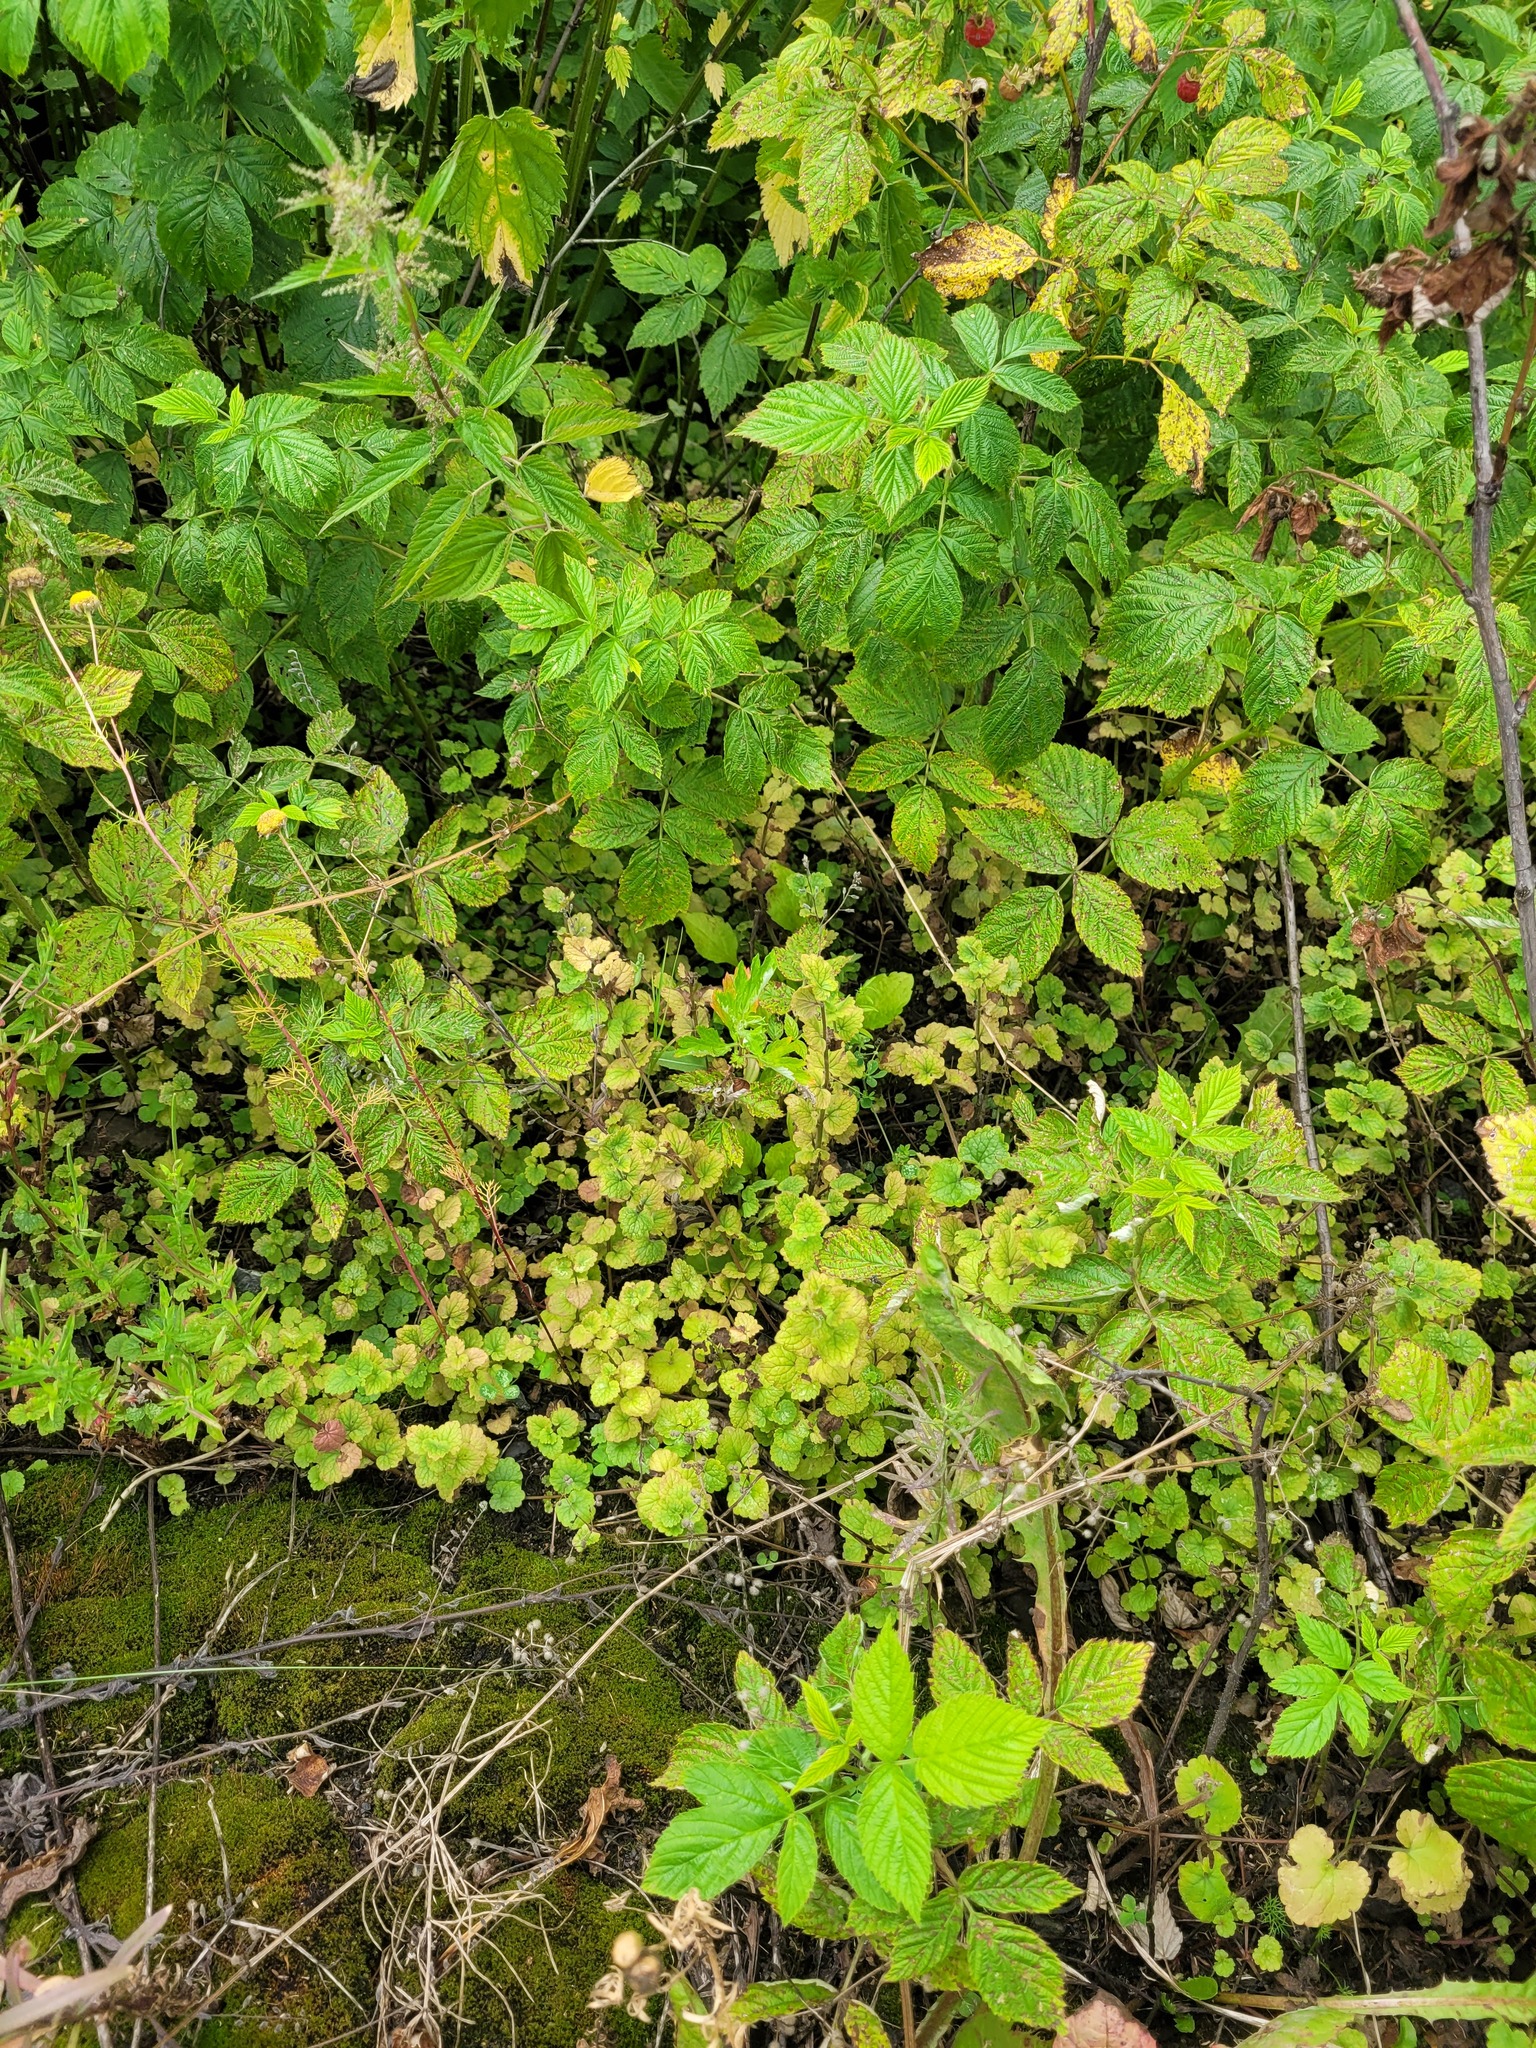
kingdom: Plantae
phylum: Tracheophyta
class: Magnoliopsida
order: Lamiales
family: Lamiaceae
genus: Glechoma
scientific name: Glechoma hederacea
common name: Ground ivy
